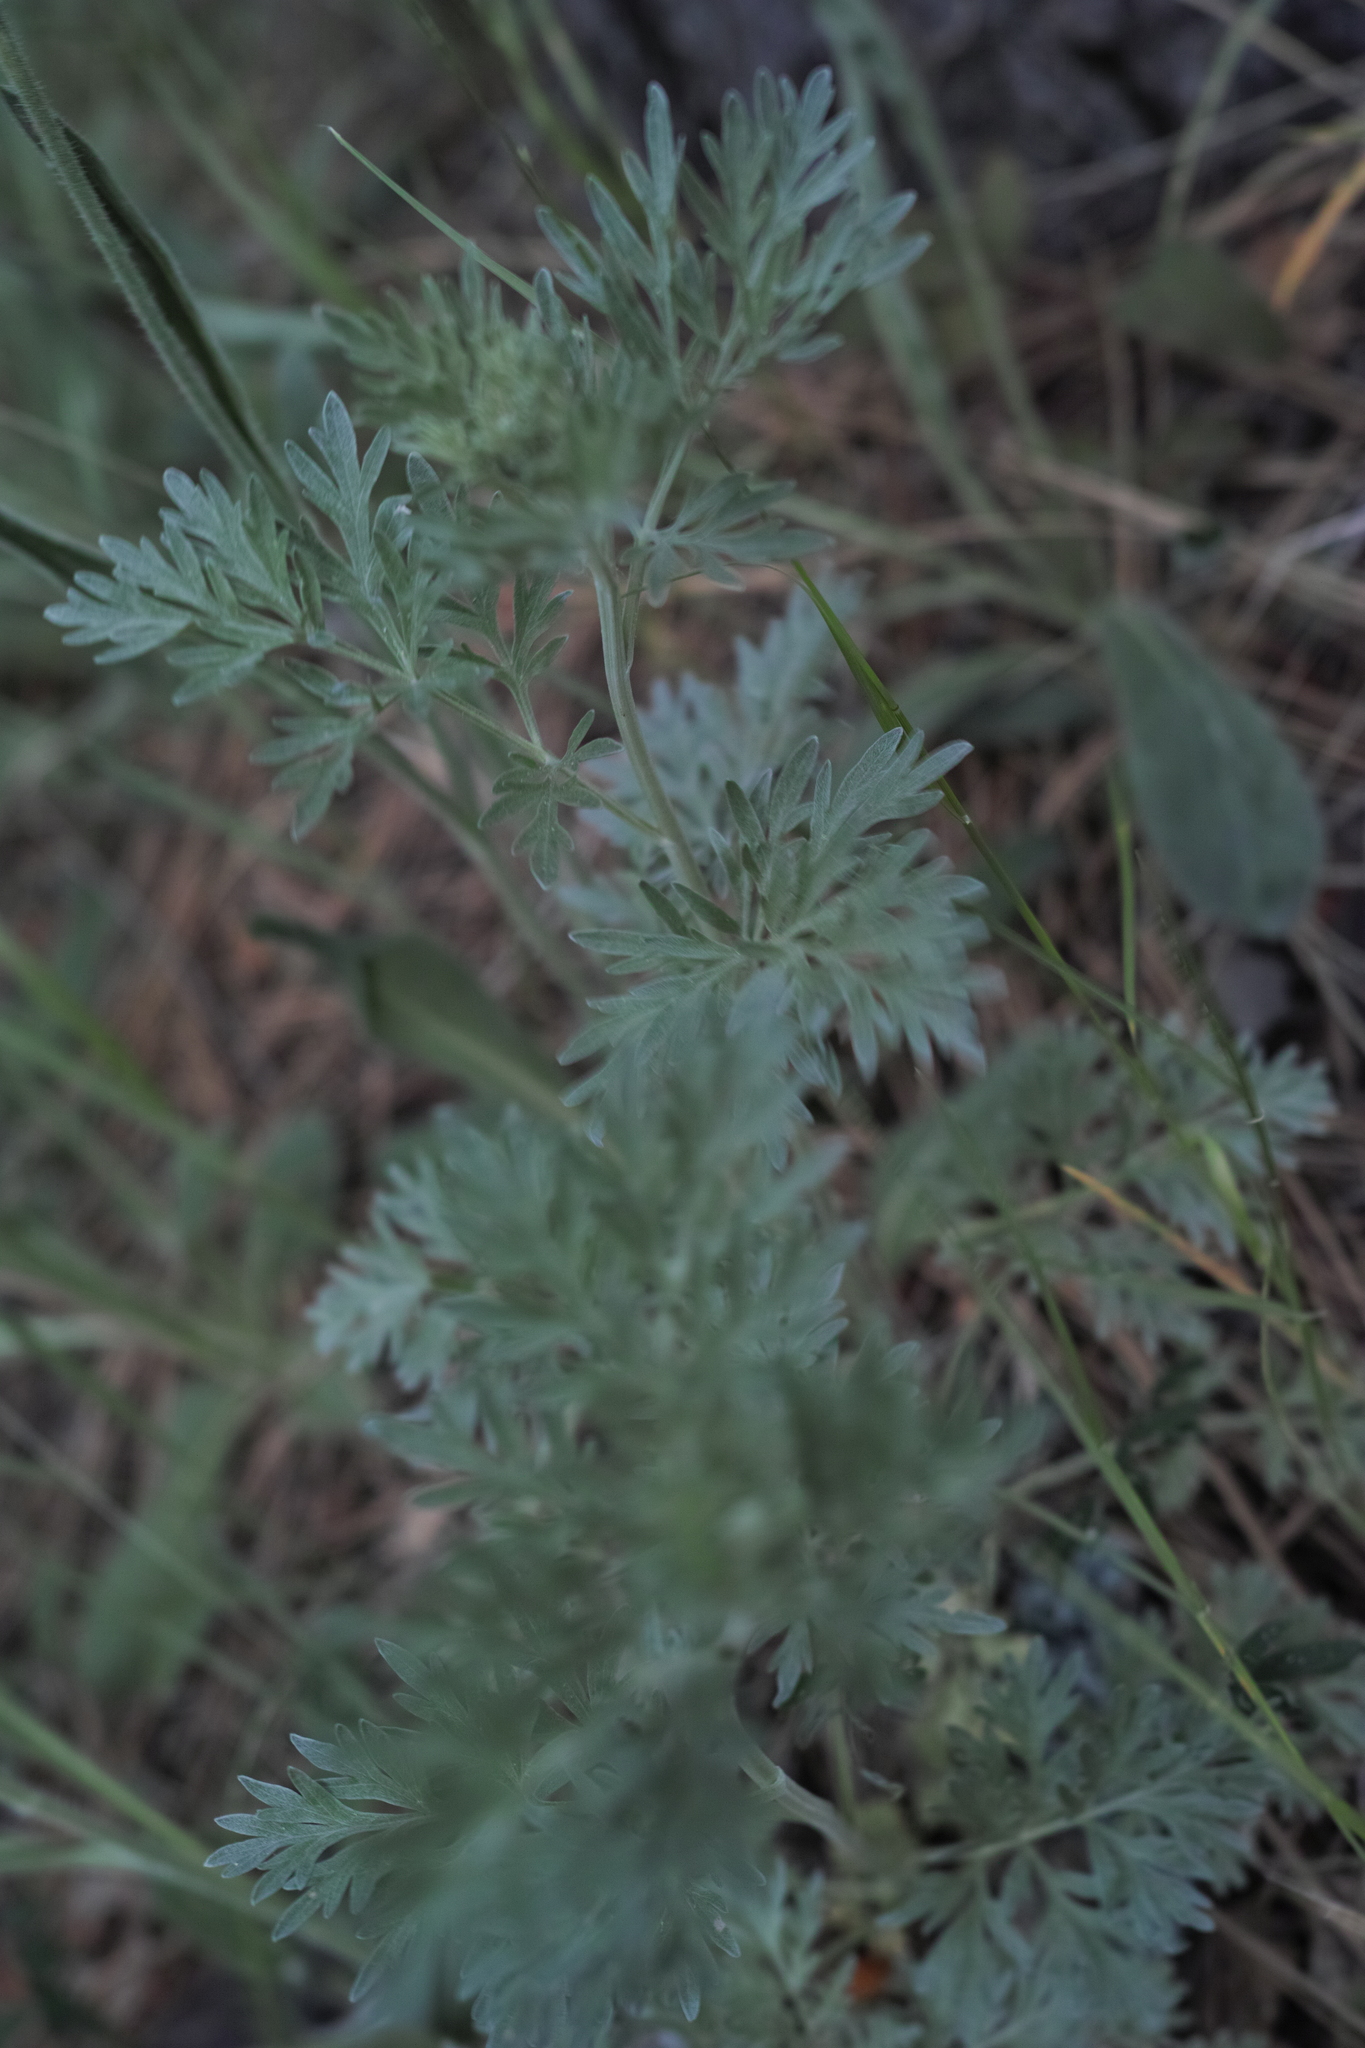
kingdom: Plantae
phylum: Tracheophyta
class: Magnoliopsida
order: Asterales
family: Asteraceae
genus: Artemisia
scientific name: Artemisia absinthium
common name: Wormwood
